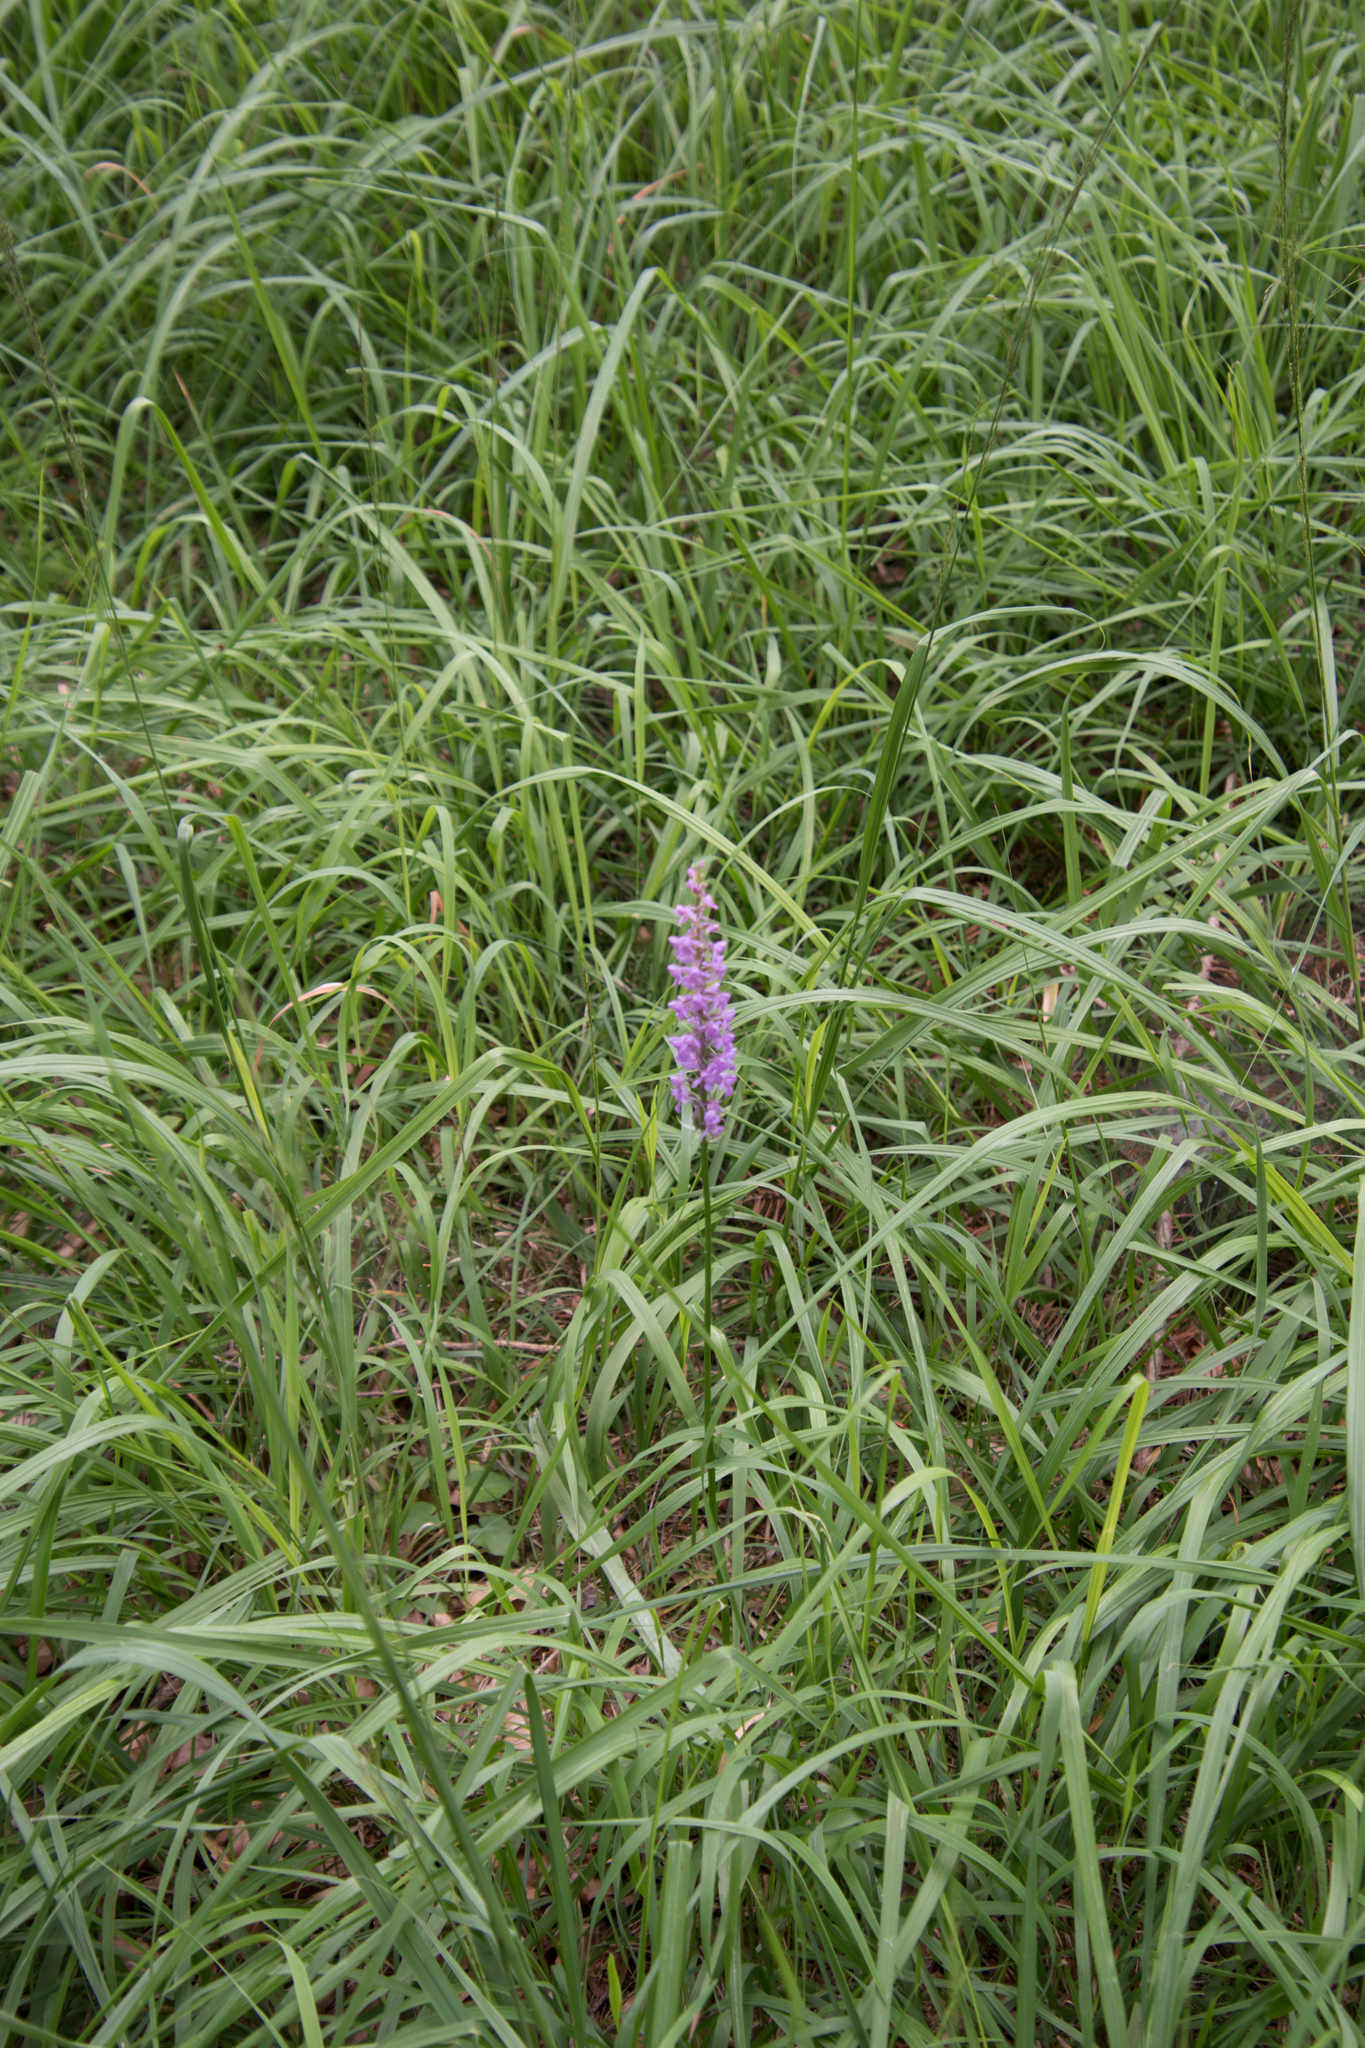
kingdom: Plantae
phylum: Tracheophyta
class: Liliopsida
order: Asparagales
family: Orchidaceae
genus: Gymnadenia
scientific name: Gymnadenia conopsea
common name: Fragrant orchid
